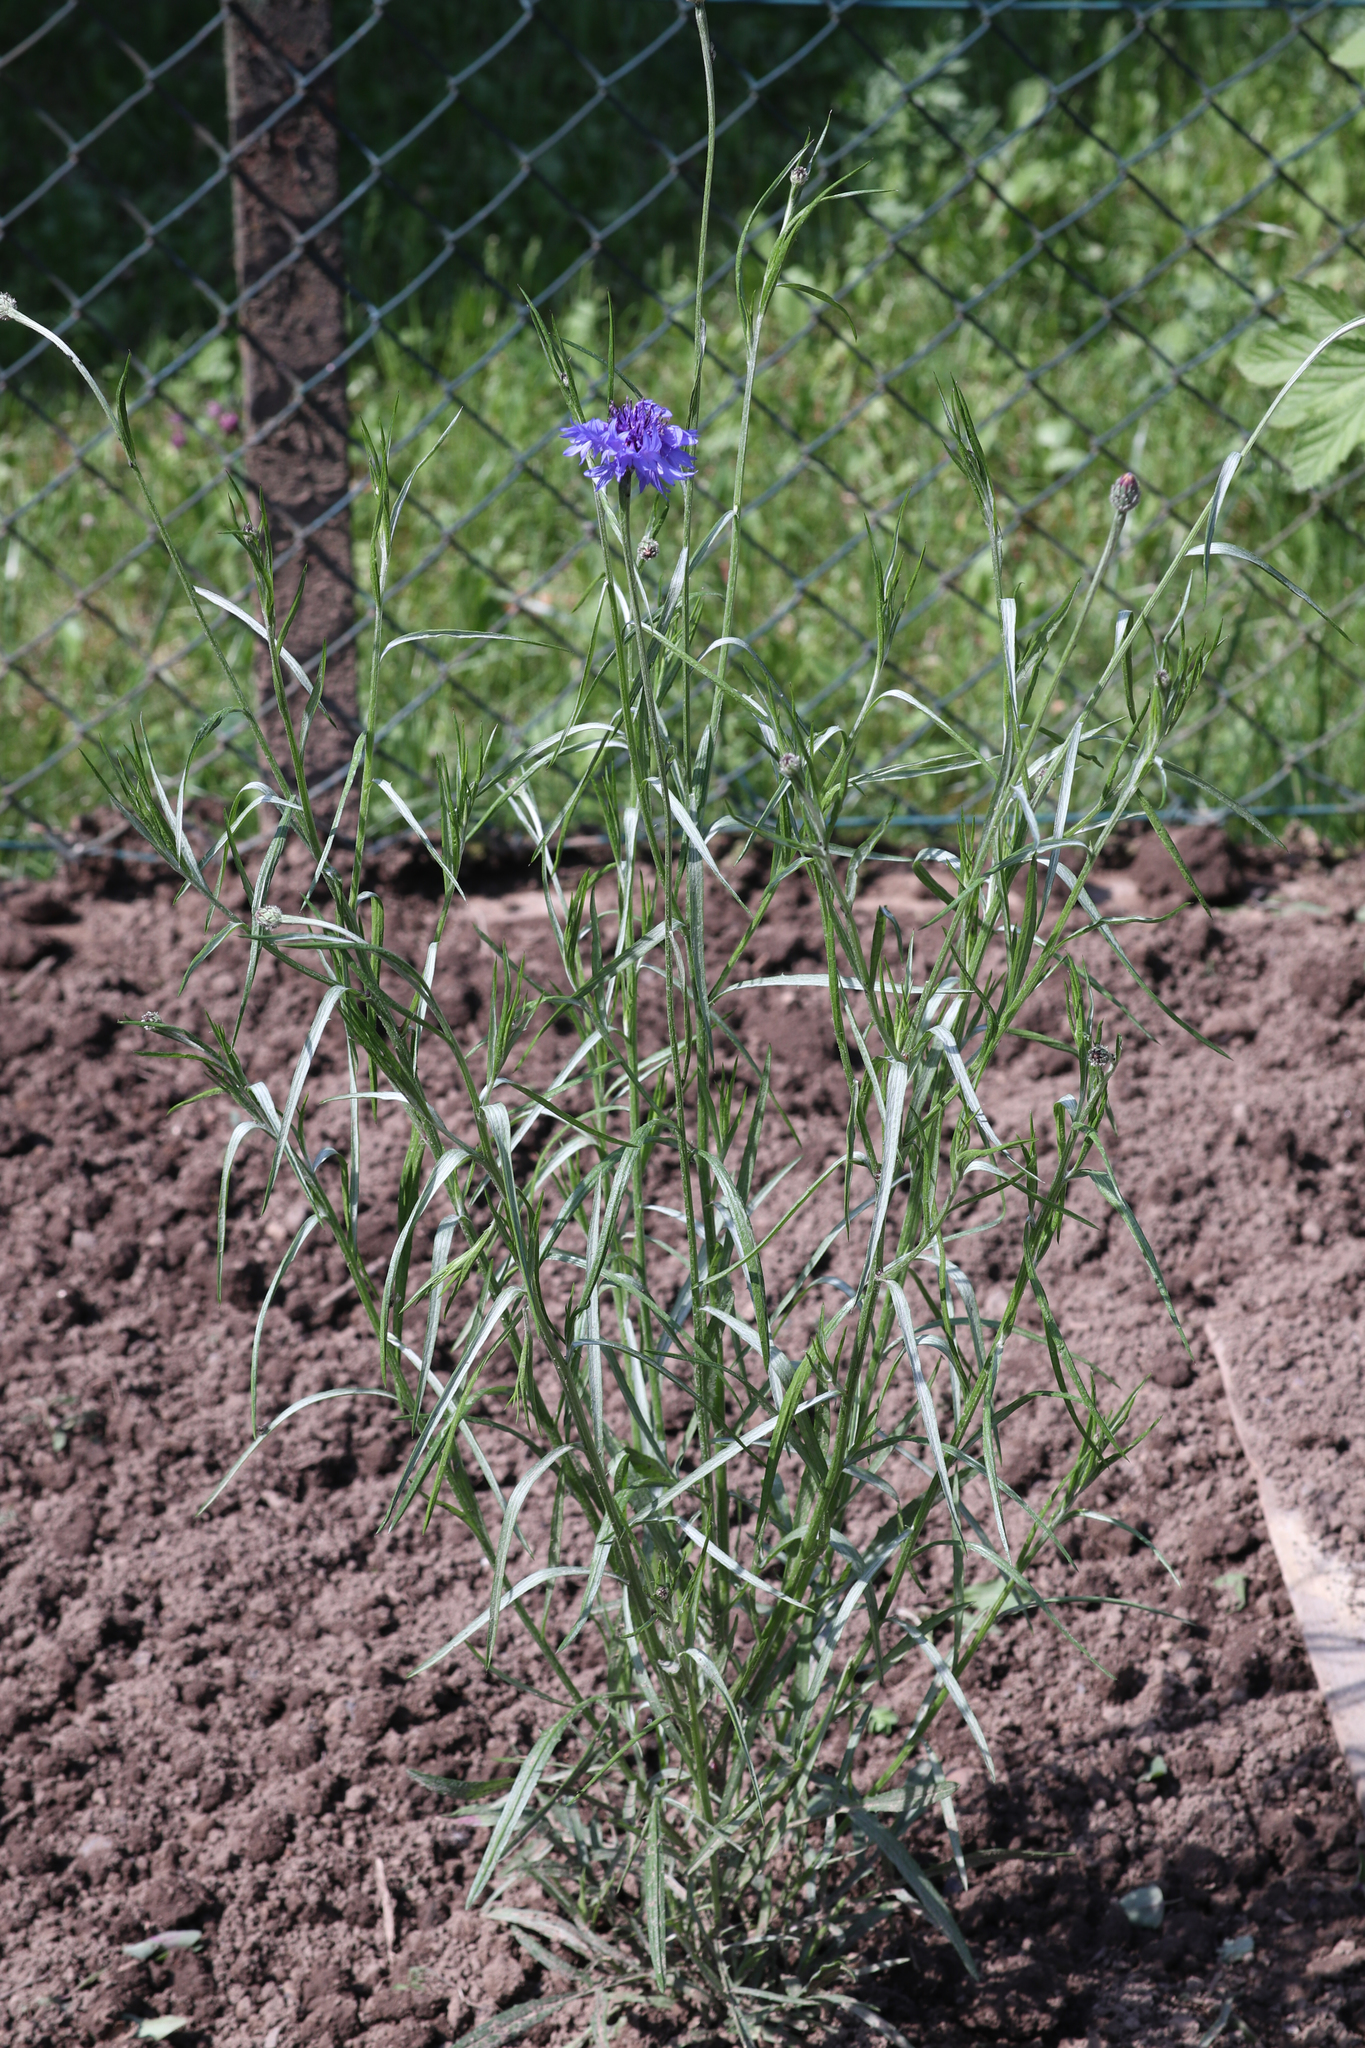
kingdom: Plantae
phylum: Tracheophyta
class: Magnoliopsida
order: Asterales
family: Asteraceae
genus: Centaurea
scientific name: Centaurea cyanus
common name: Cornflower
